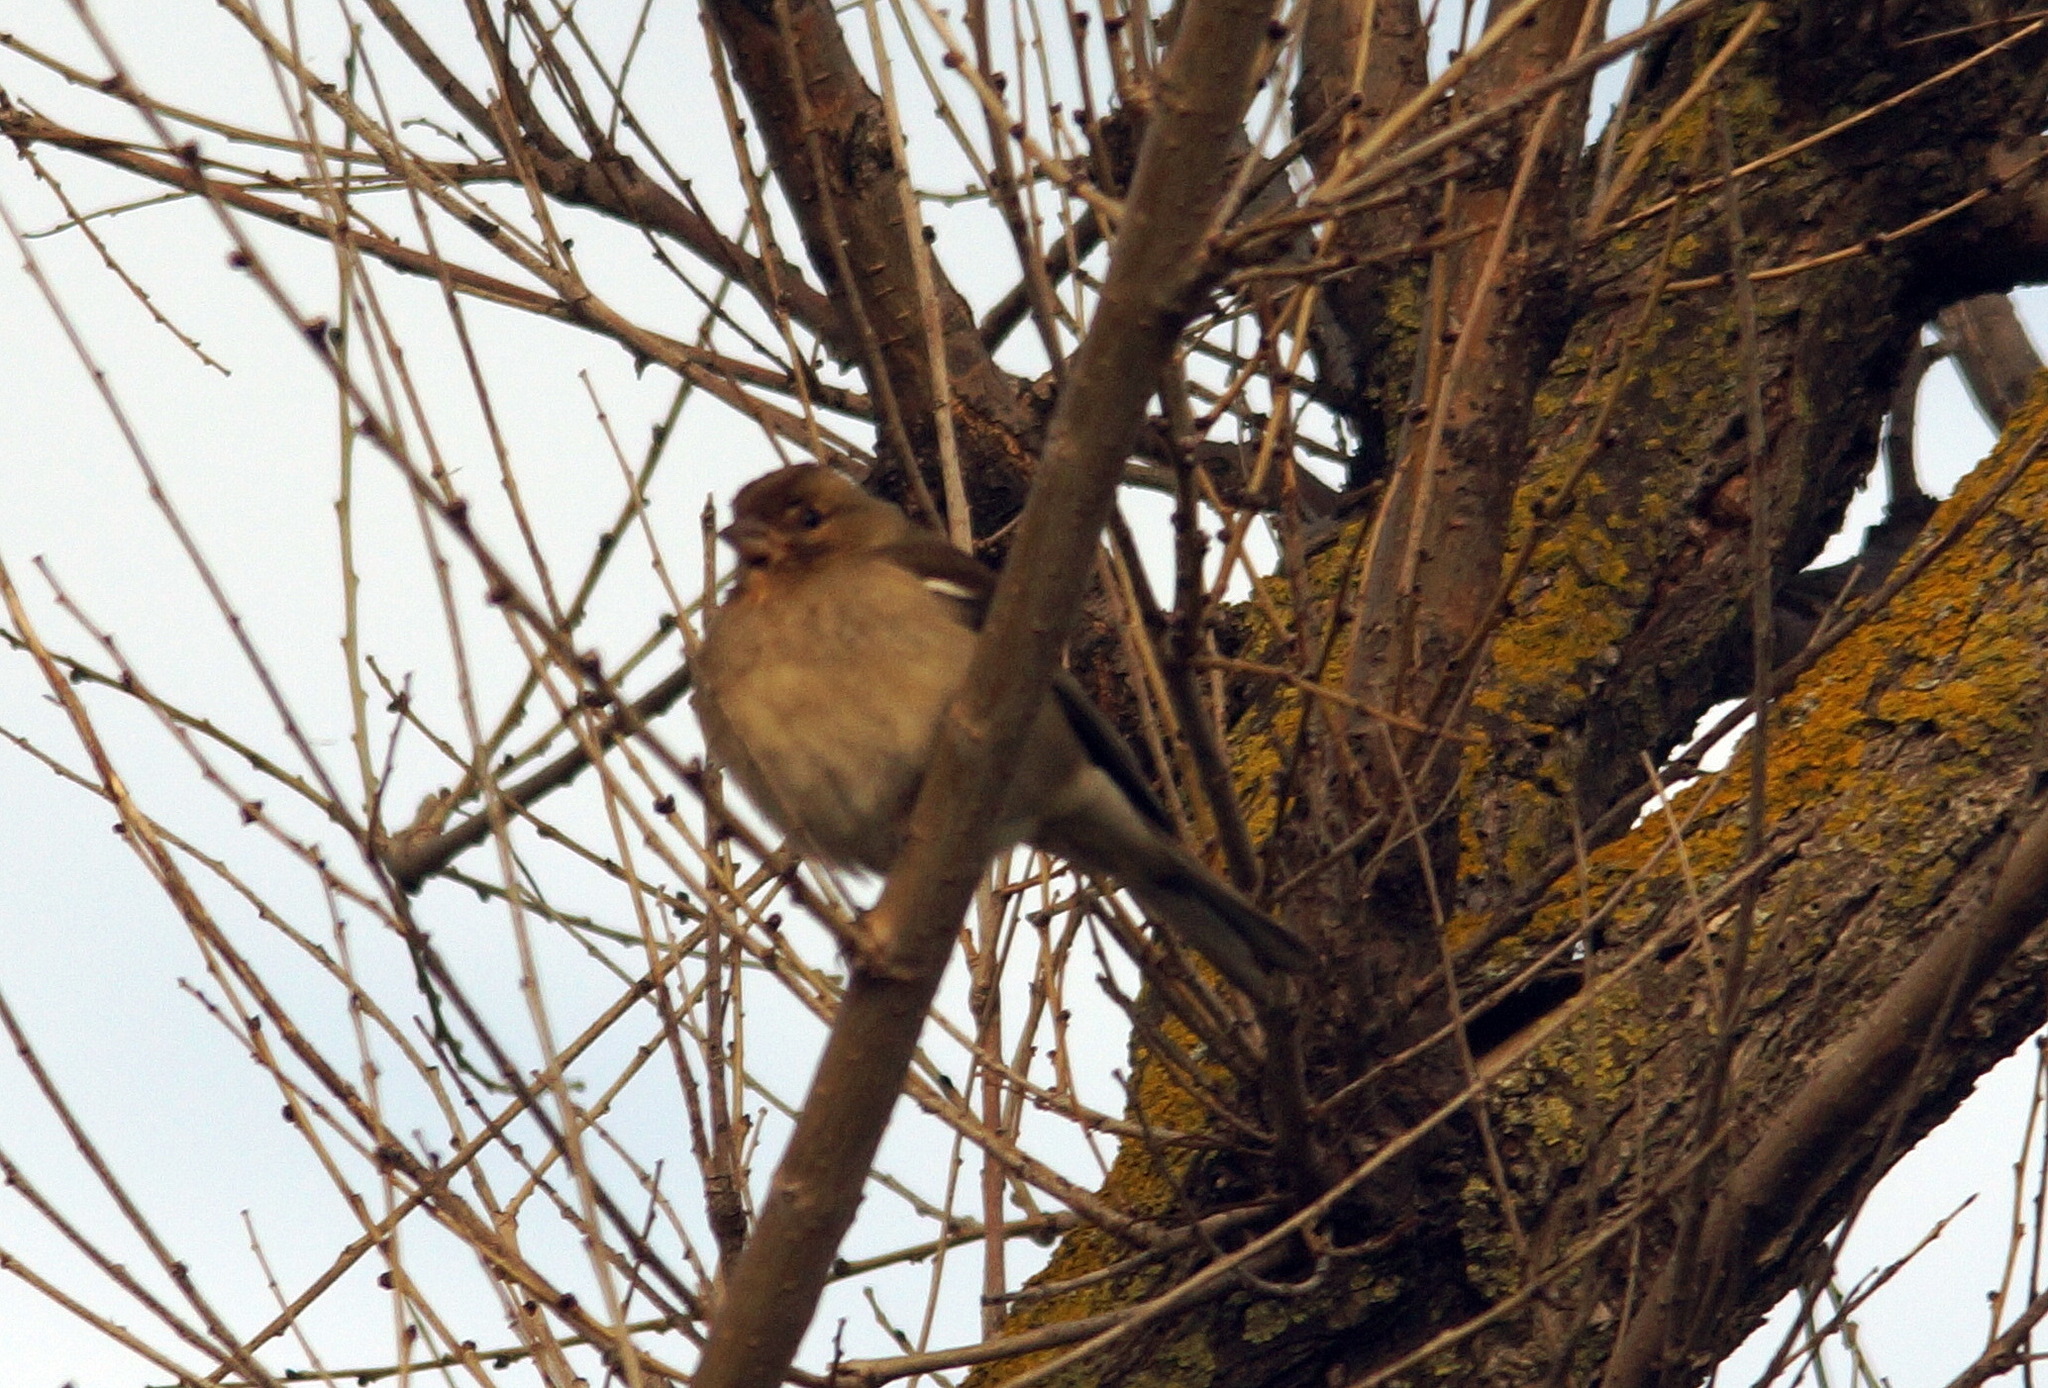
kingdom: Animalia
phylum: Chordata
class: Aves
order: Passeriformes
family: Fringillidae
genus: Fringilla
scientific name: Fringilla coelebs
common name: Common chaffinch
